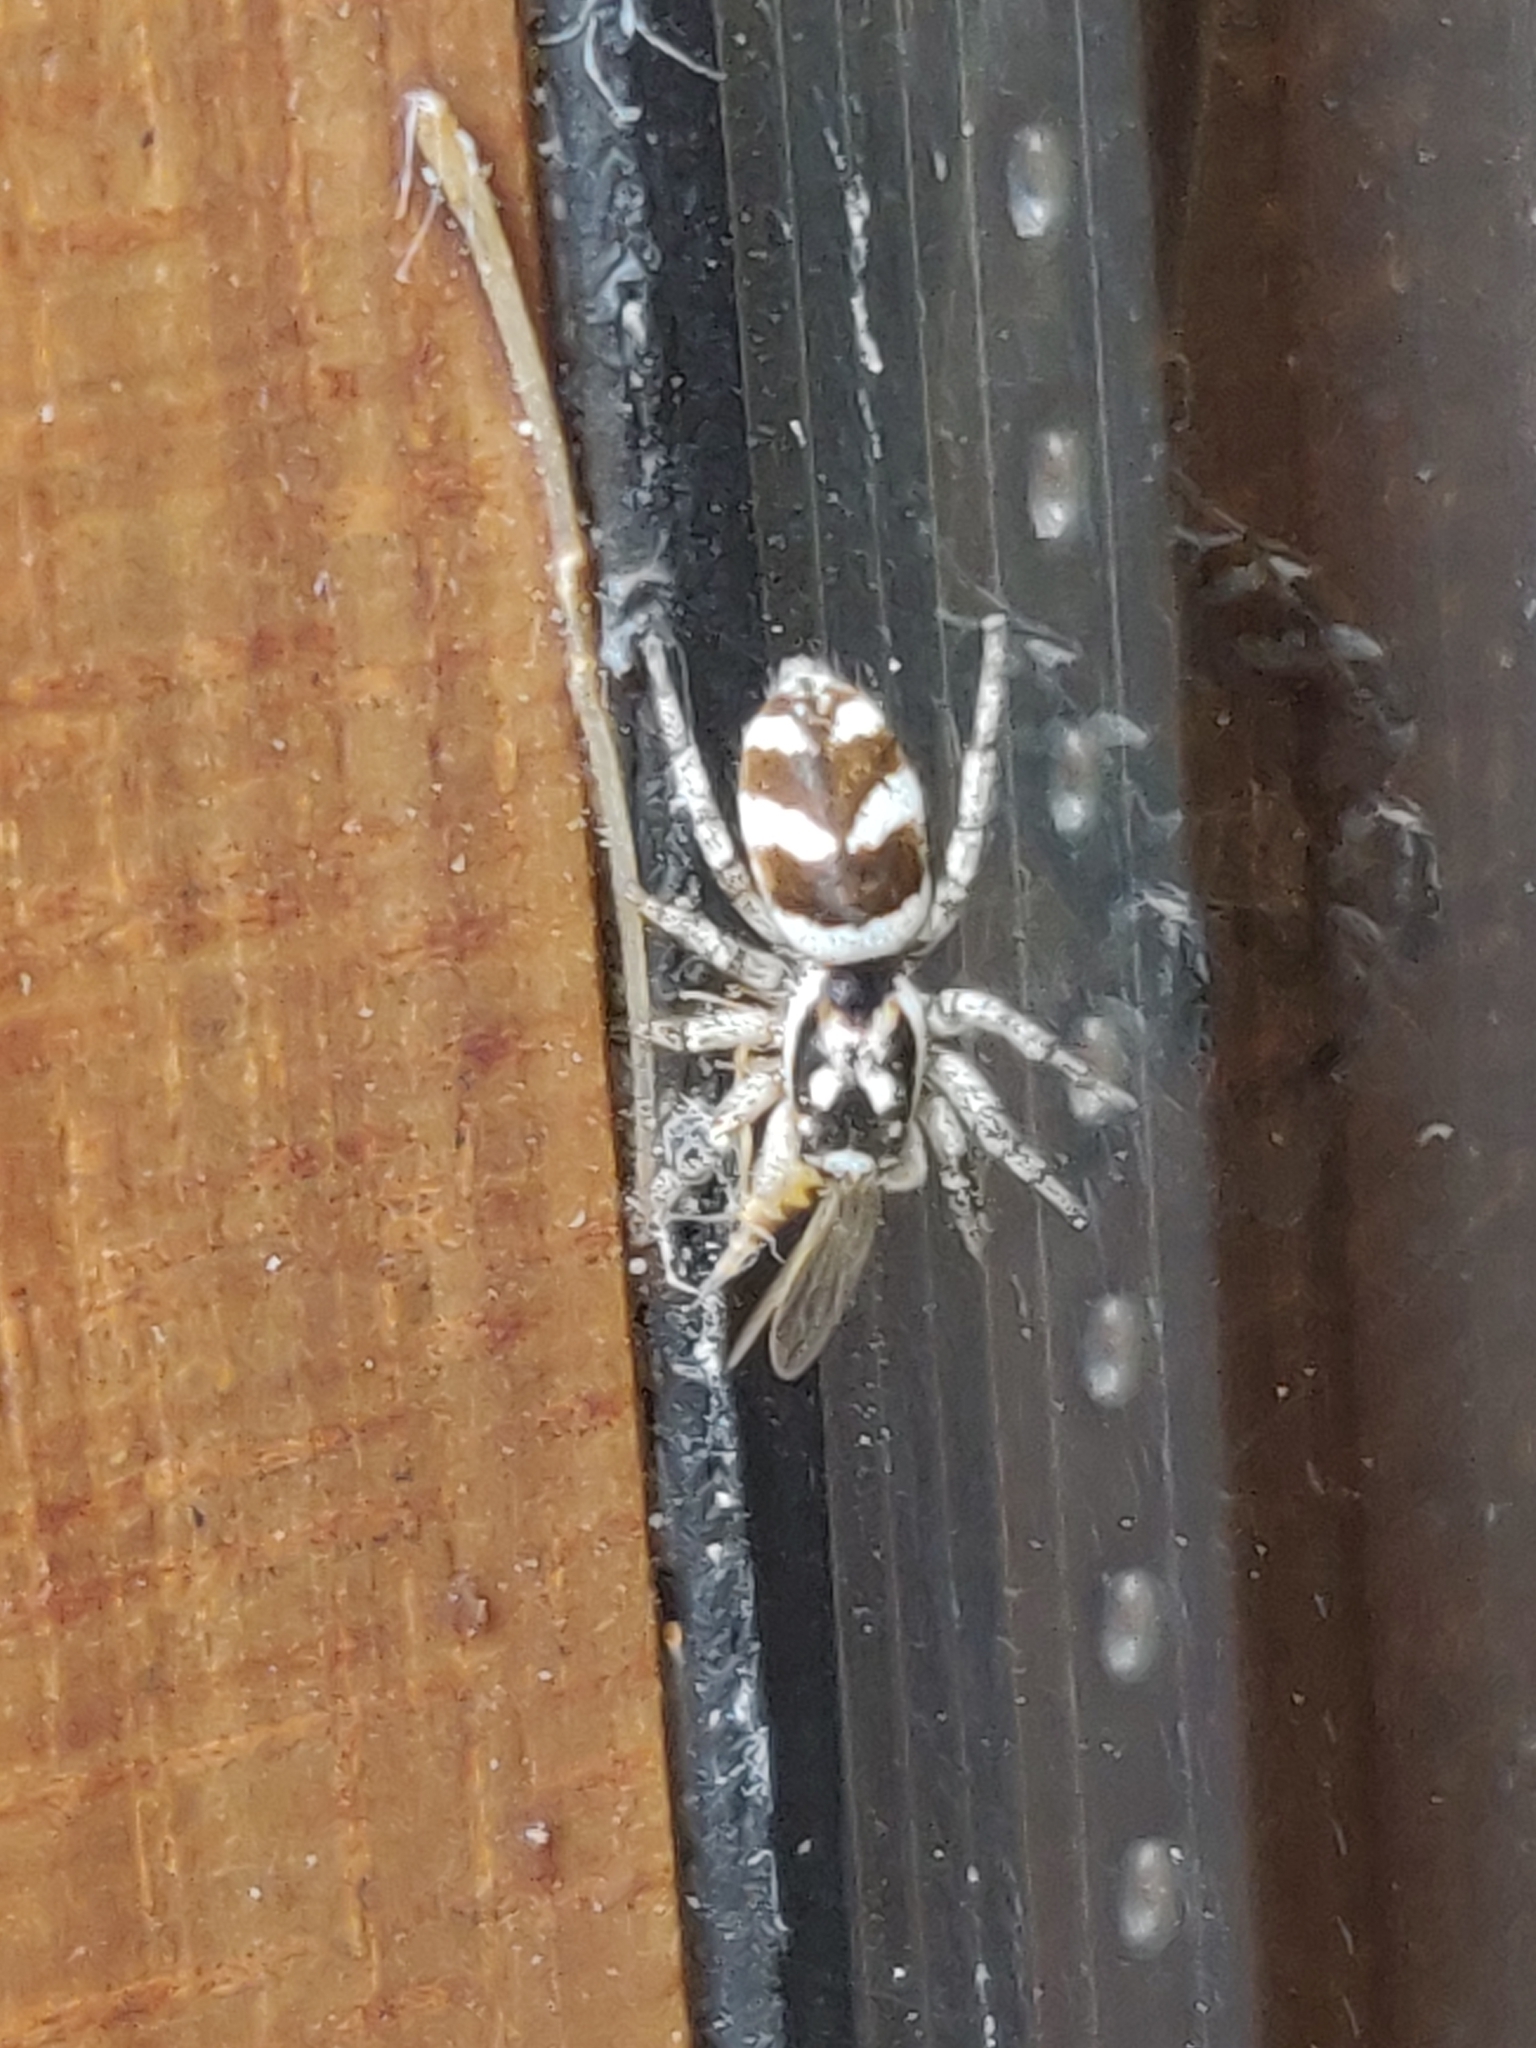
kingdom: Animalia
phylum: Arthropoda
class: Arachnida
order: Araneae
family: Salticidae
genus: Salticus
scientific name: Salticus scenicus
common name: Zebra jumper
